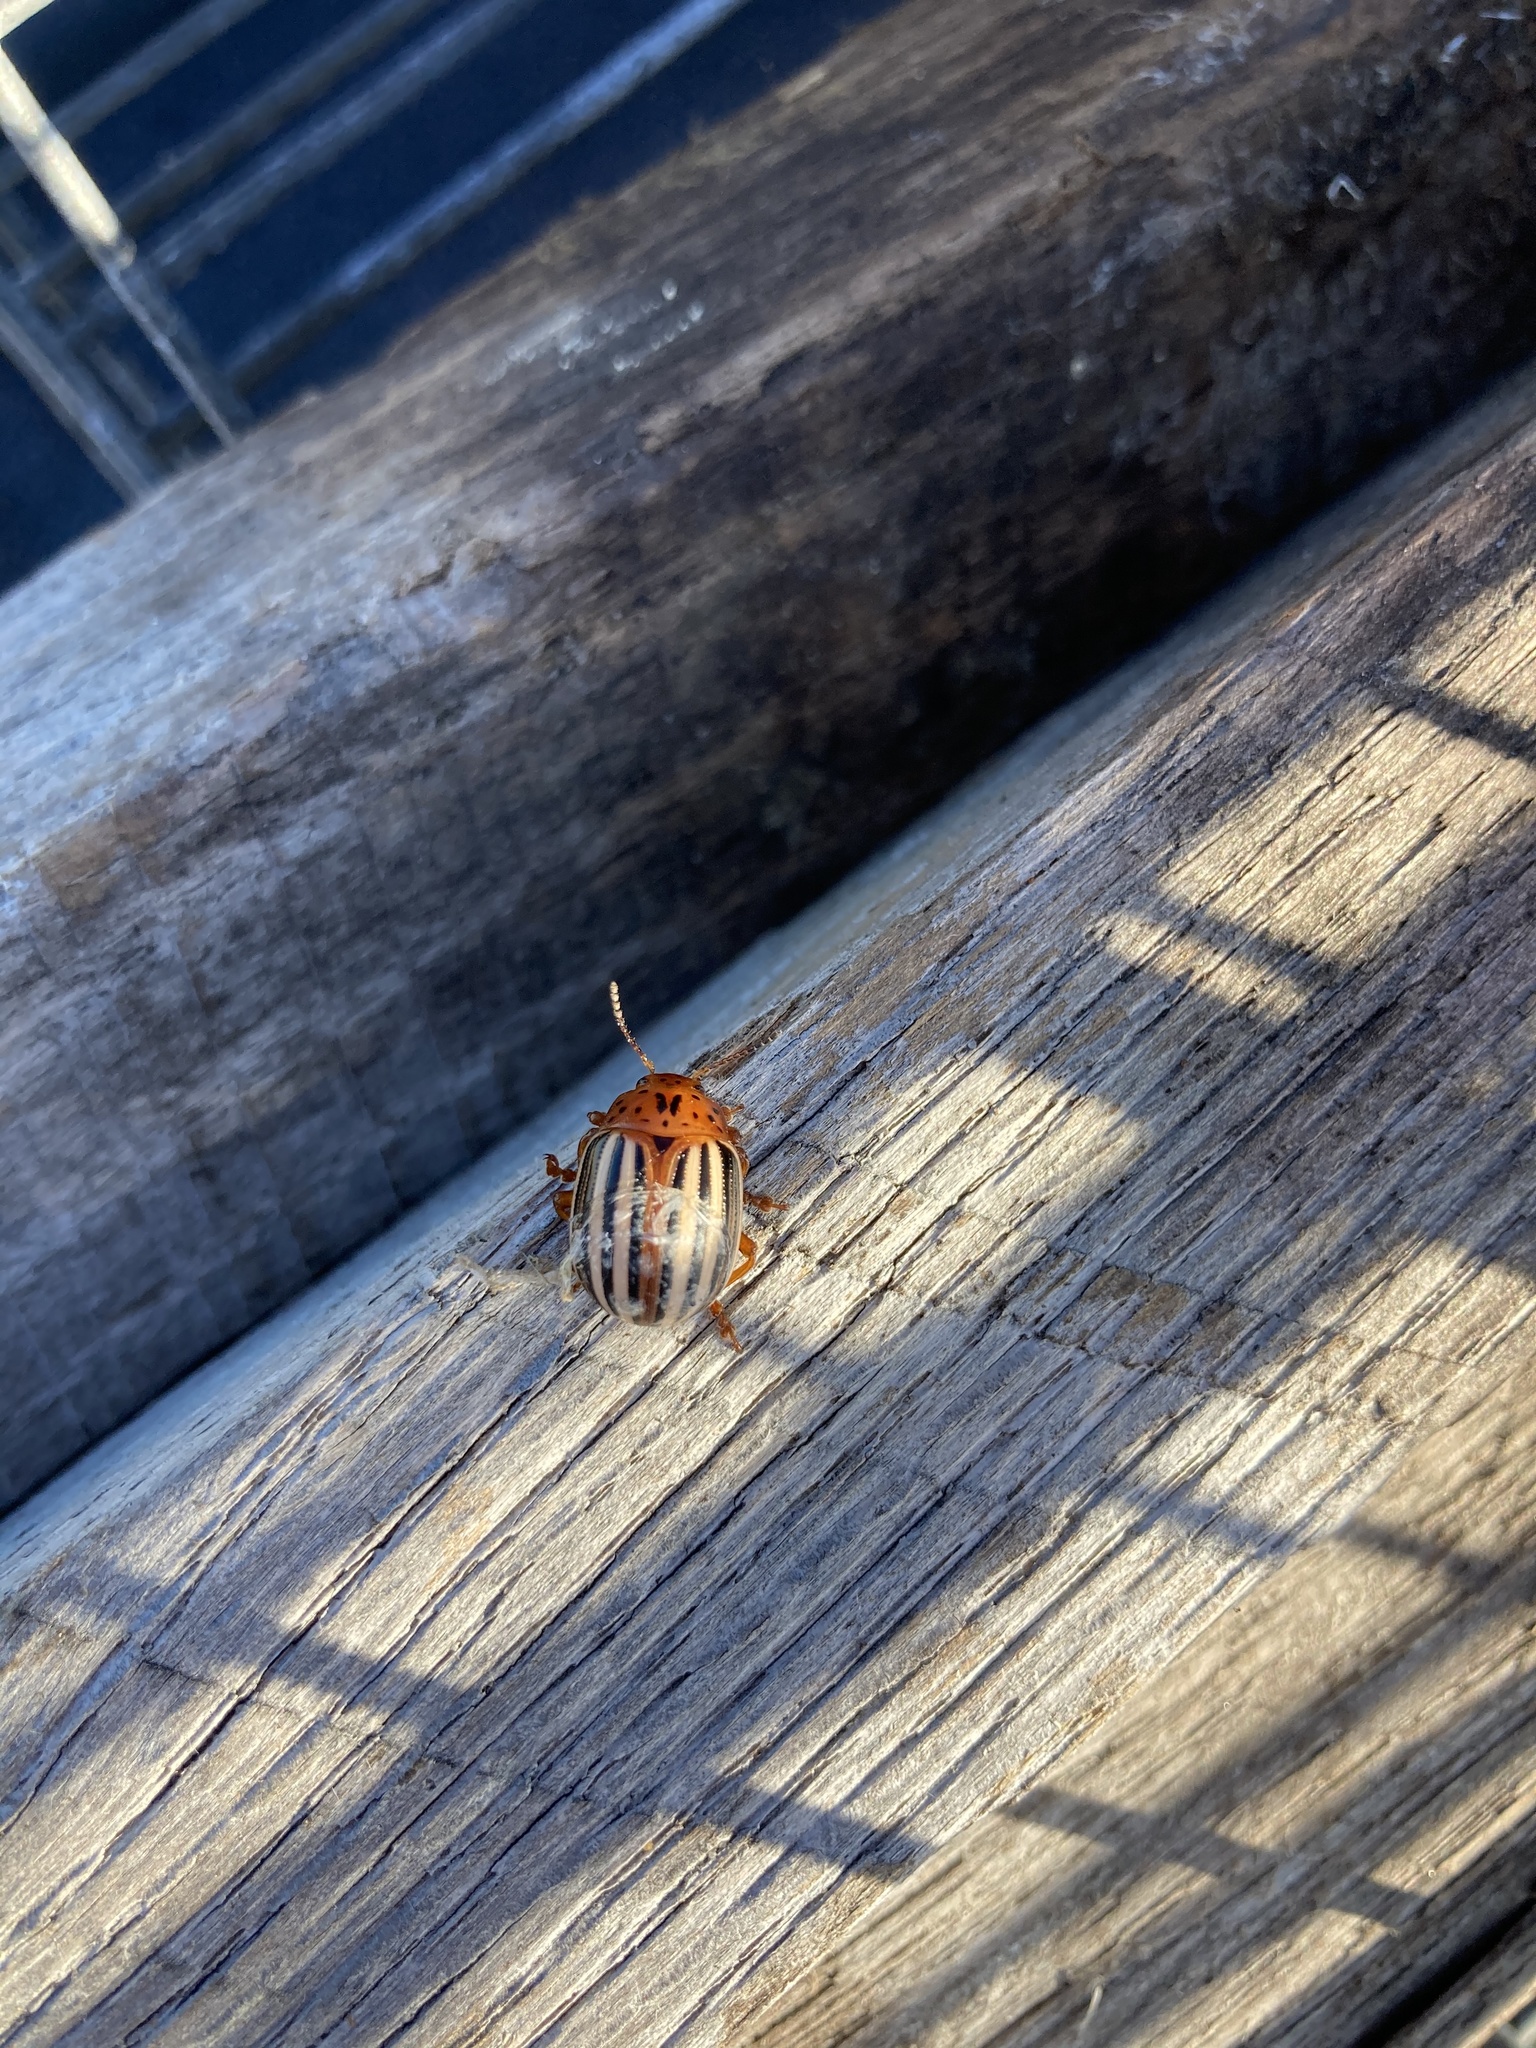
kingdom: Animalia
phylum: Arthropoda
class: Insecta
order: Coleoptera
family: Chrysomelidae
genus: Leptinotarsa
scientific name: Leptinotarsa juncta
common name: False potato beetle
